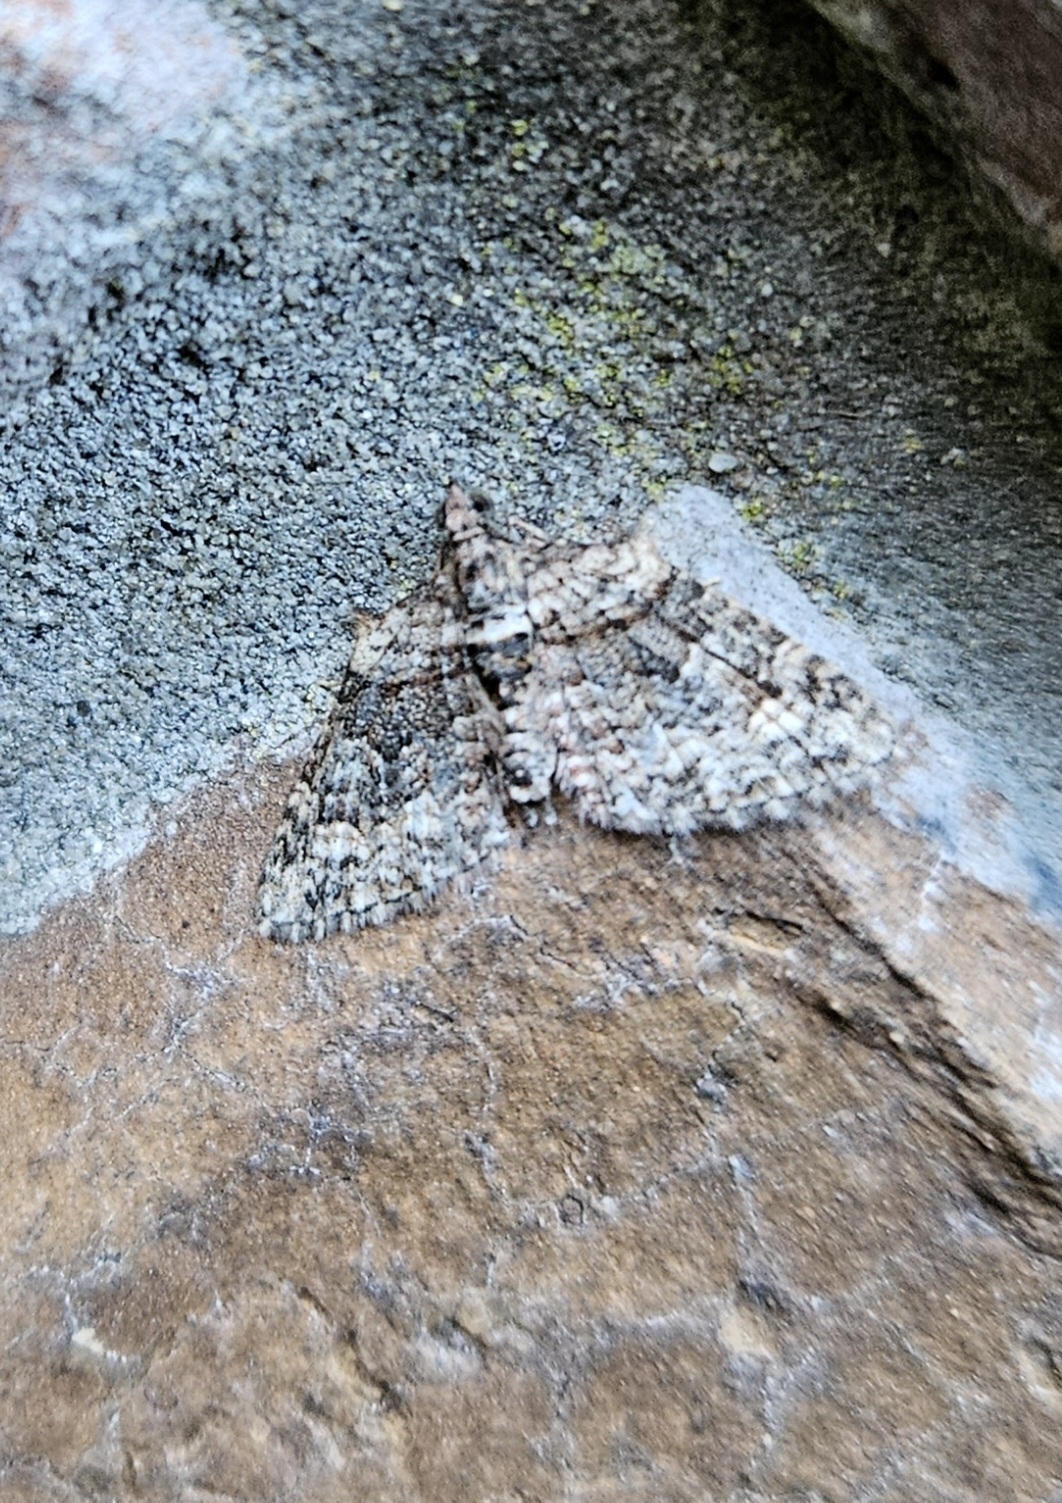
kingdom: Animalia
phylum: Arthropoda
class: Insecta
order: Lepidoptera
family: Geometridae
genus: Phrissogonus
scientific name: Phrissogonus laticostata
